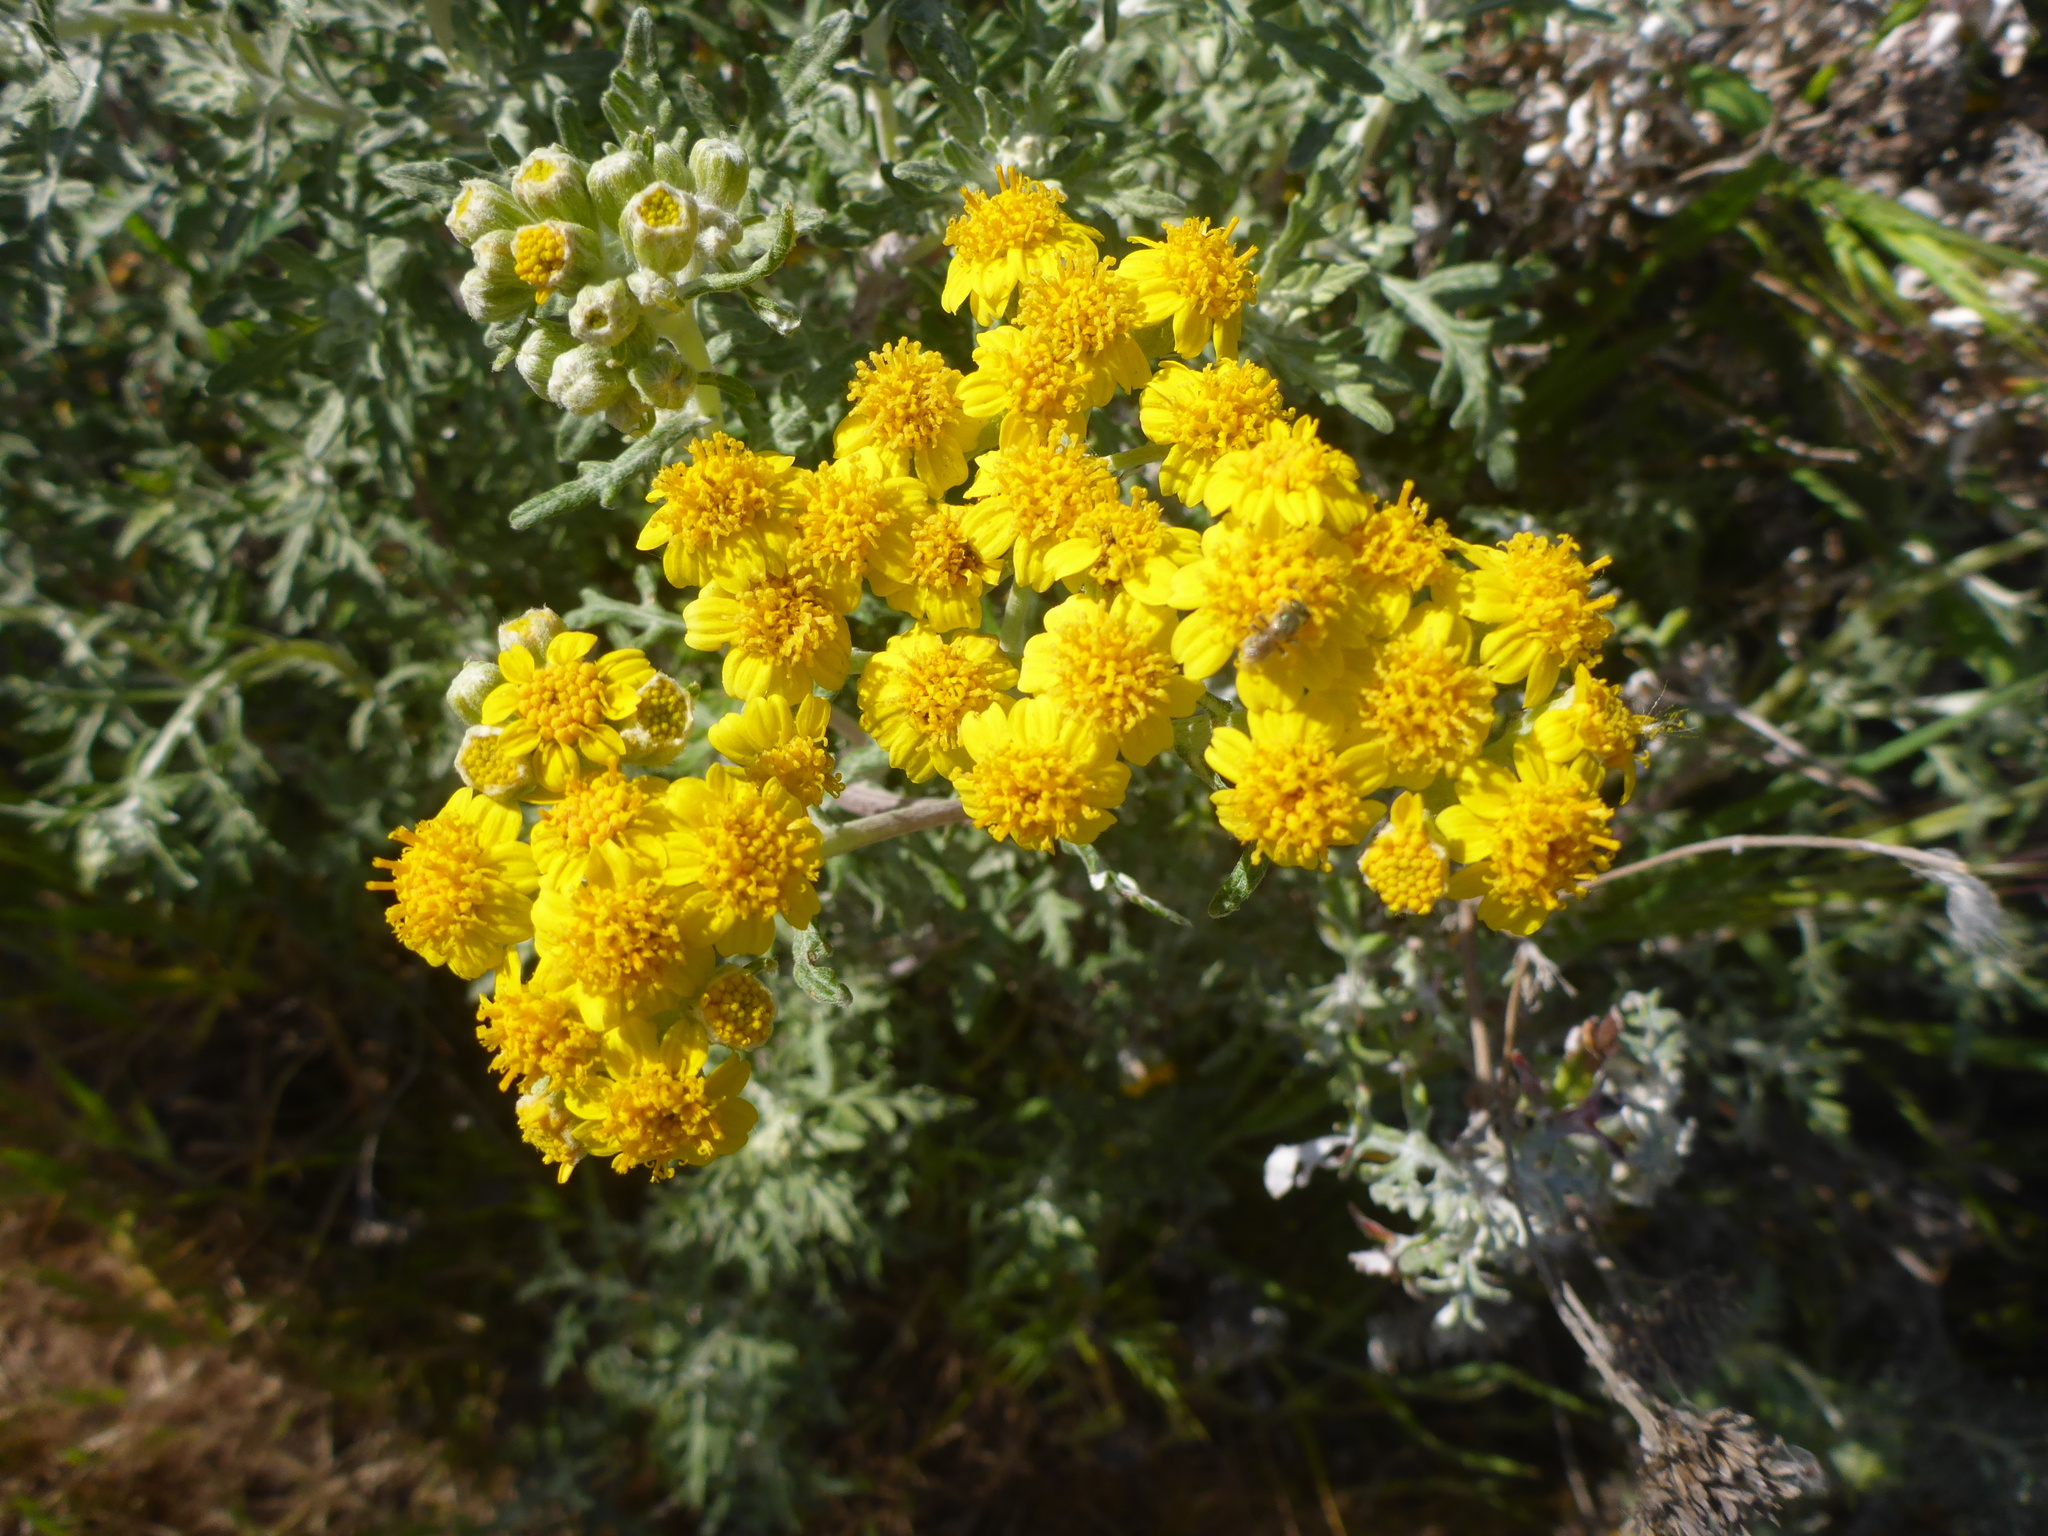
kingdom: Plantae
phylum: Tracheophyta
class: Magnoliopsida
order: Asterales
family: Asteraceae
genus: Eriophyllum
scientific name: Eriophyllum staechadifolium
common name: Lizardtail
